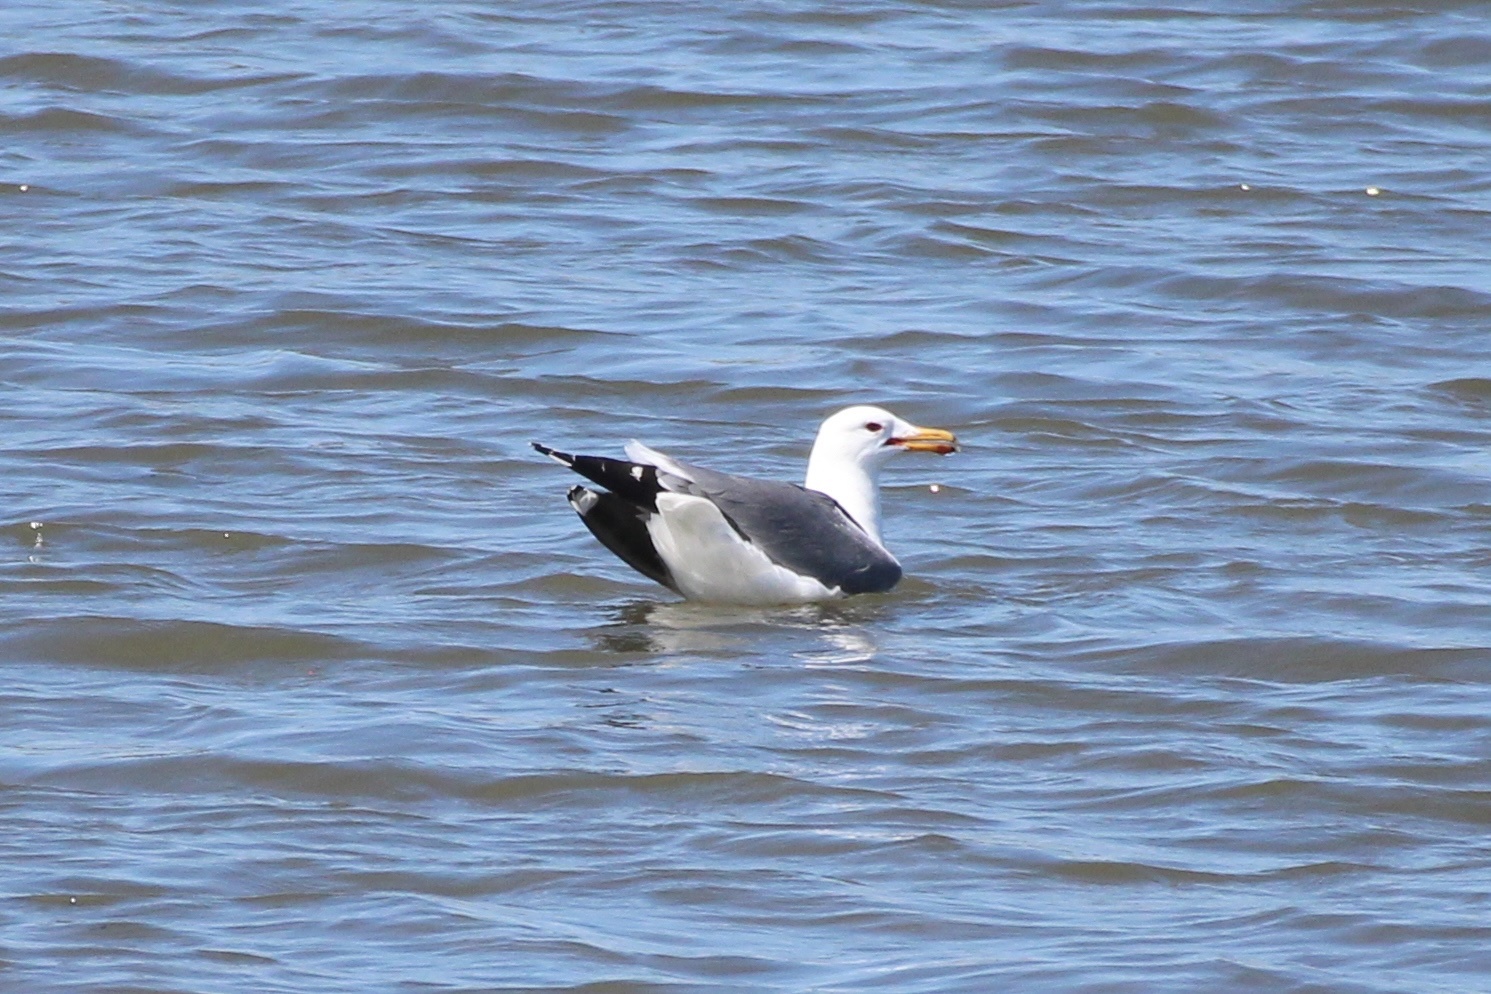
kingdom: Animalia
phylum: Chordata
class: Aves
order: Charadriiformes
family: Laridae
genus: Larus
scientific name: Larus californicus
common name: California gull
